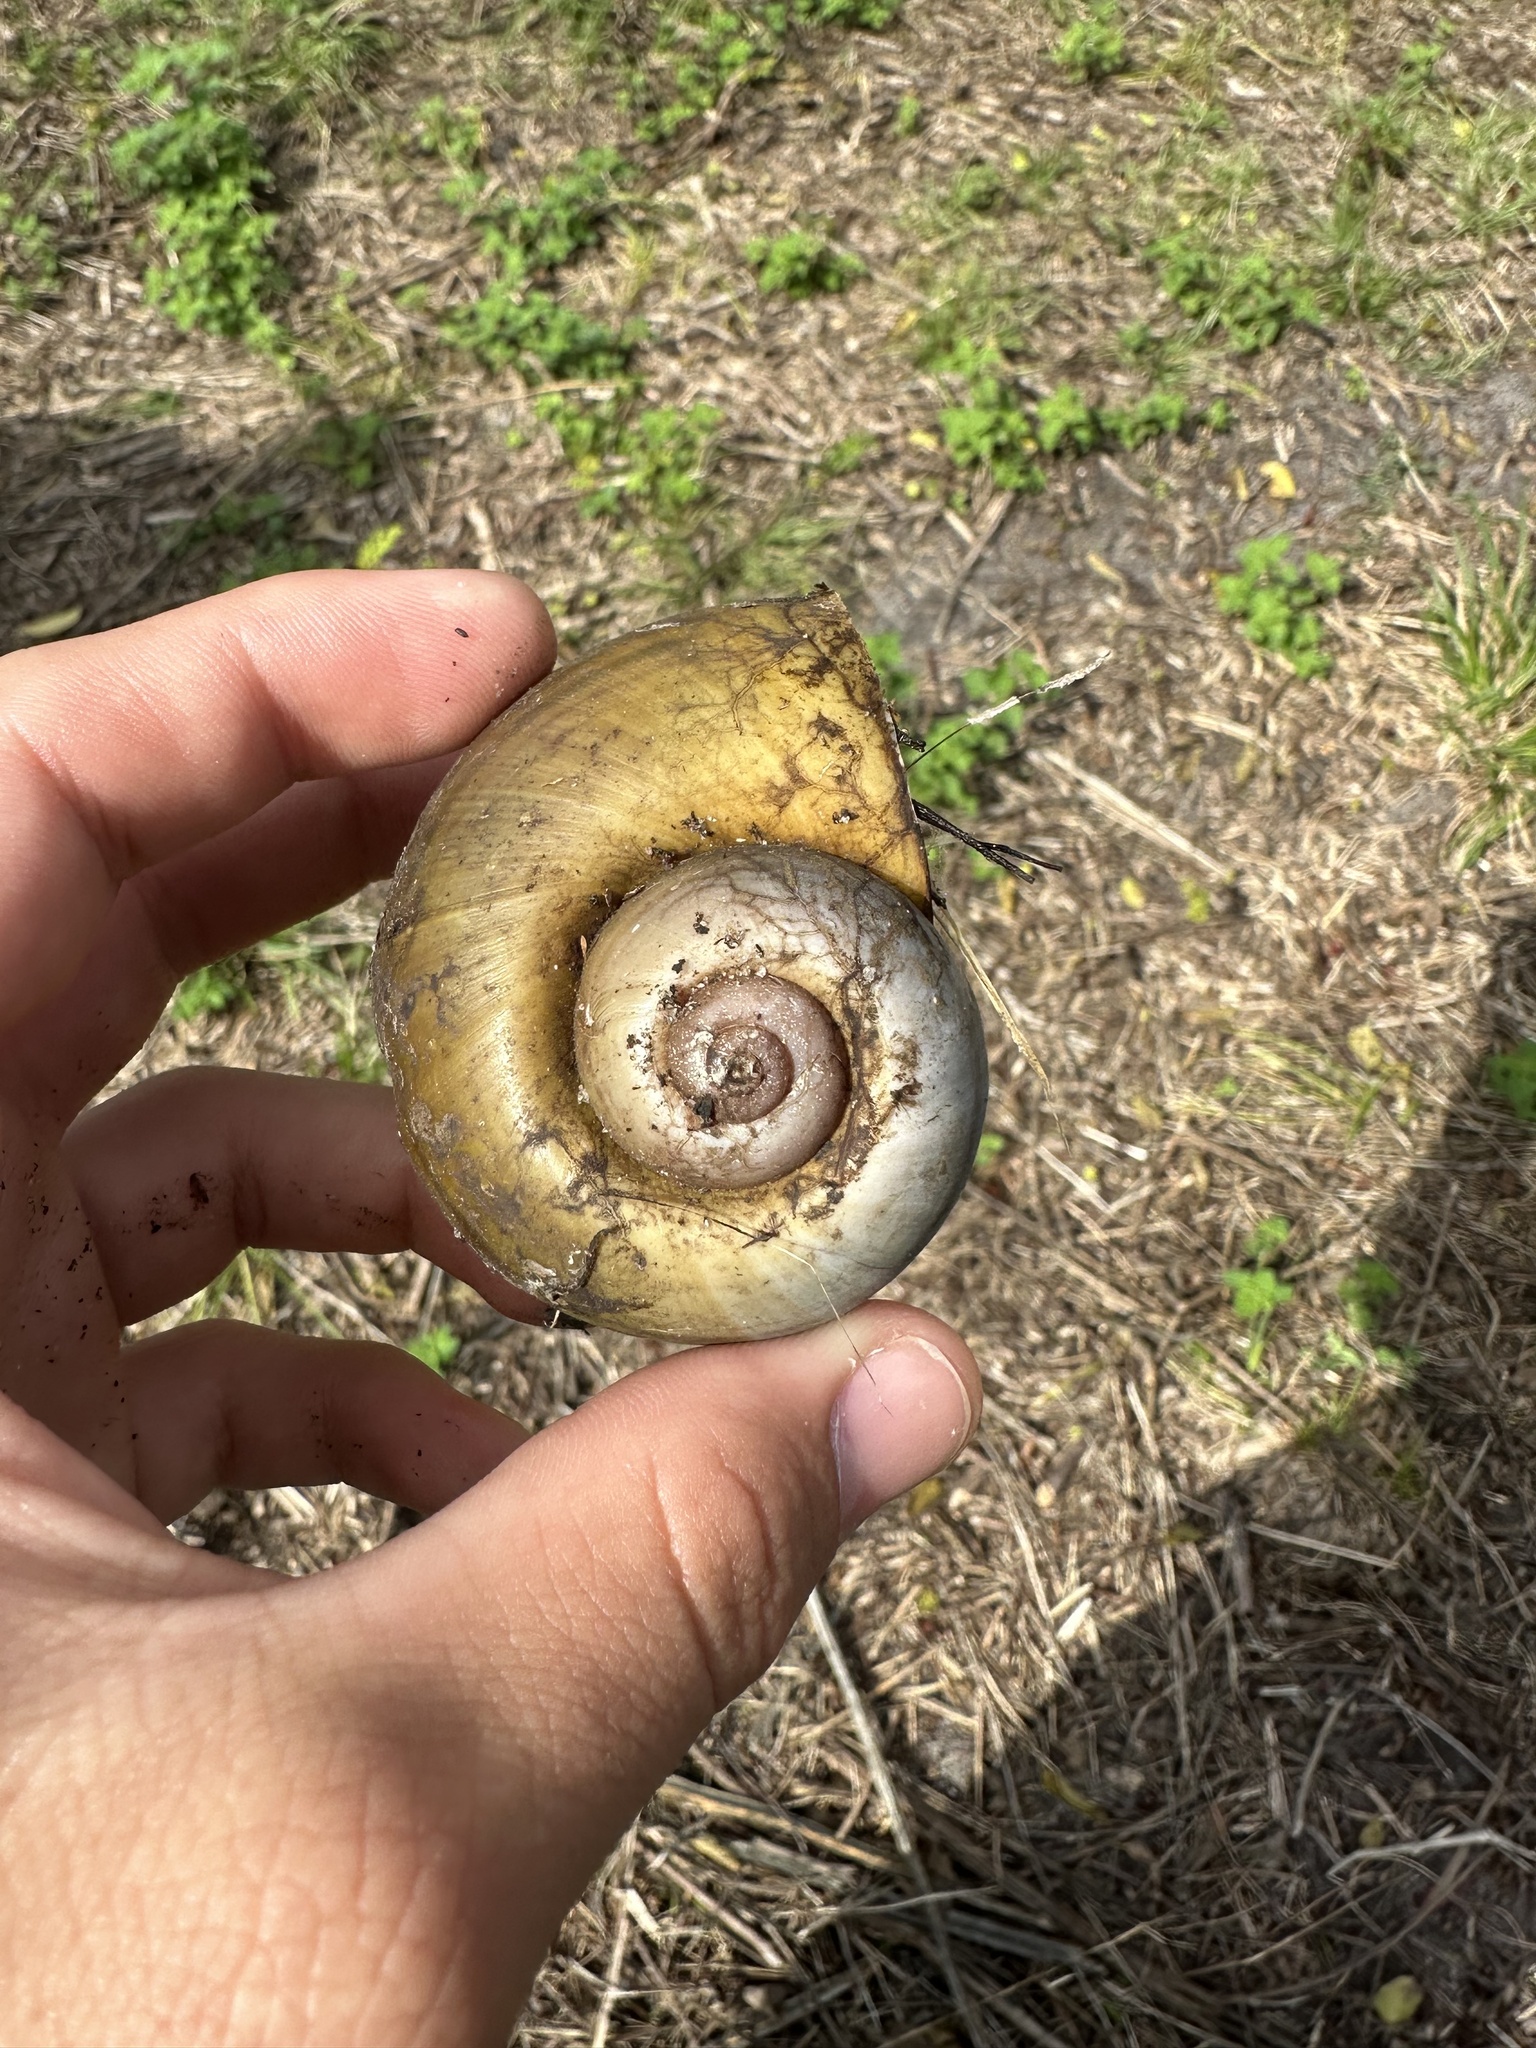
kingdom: Animalia
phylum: Mollusca
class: Gastropoda
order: Architaenioglossa
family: Ampullariidae
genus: Pomacea
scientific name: Pomacea maculata
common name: Giant applesnail
